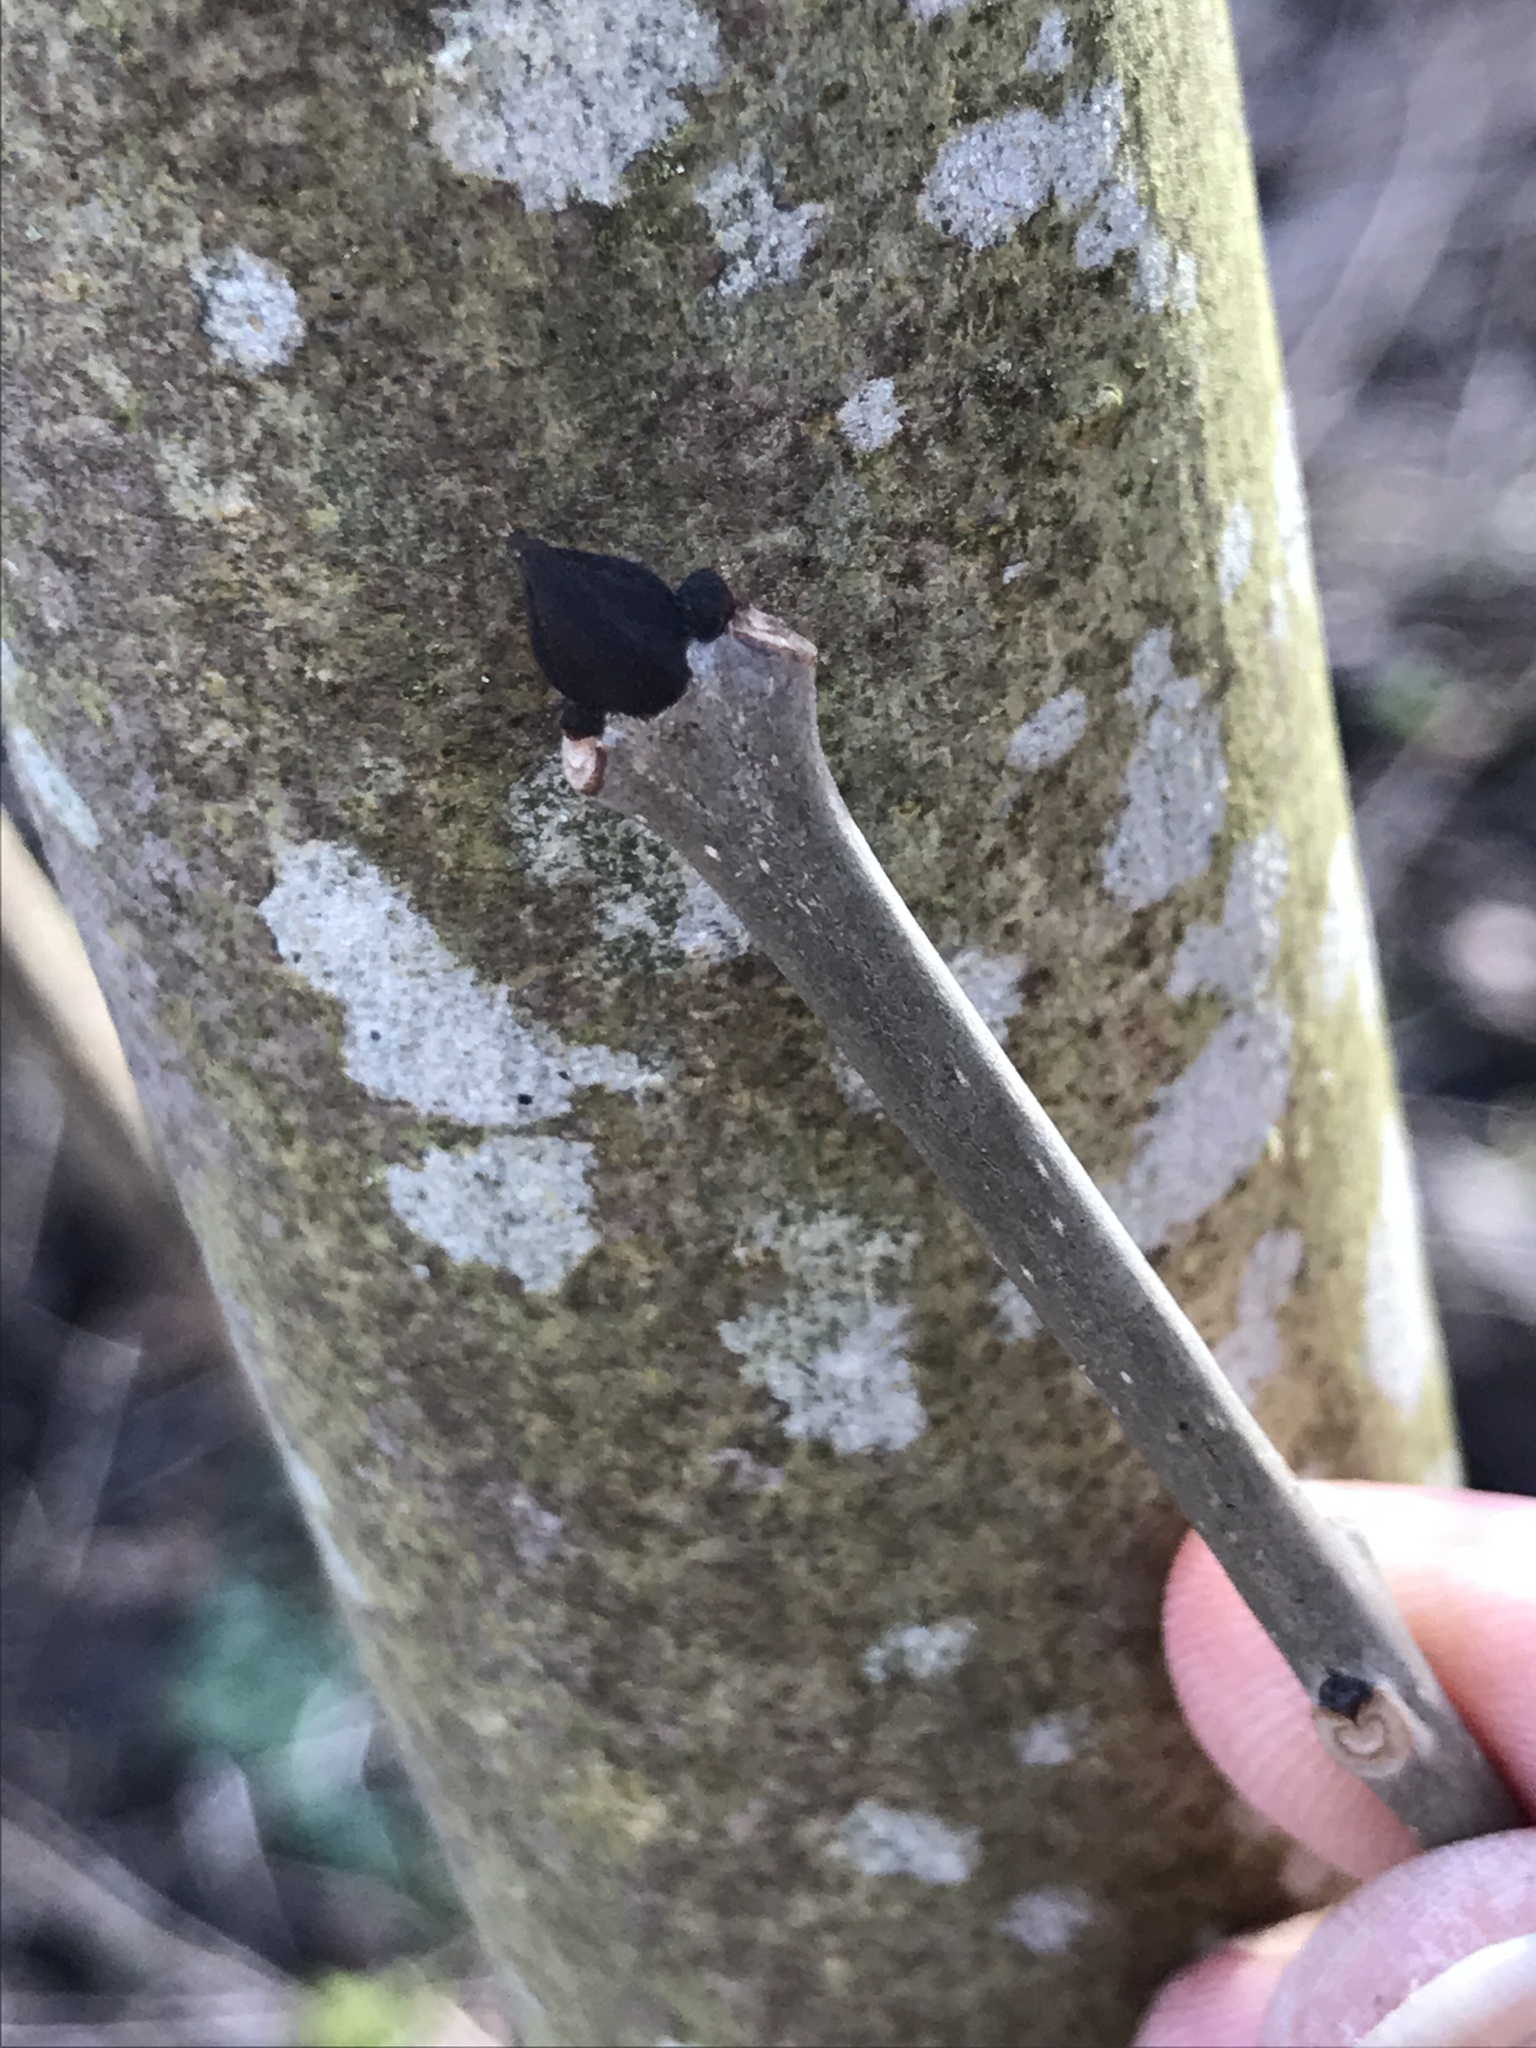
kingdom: Plantae
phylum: Tracheophyta
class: Magnoliopsida
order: Lamiales
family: Oleaceae
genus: Fraxinus
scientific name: Fraxinus excelsior
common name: European ash
